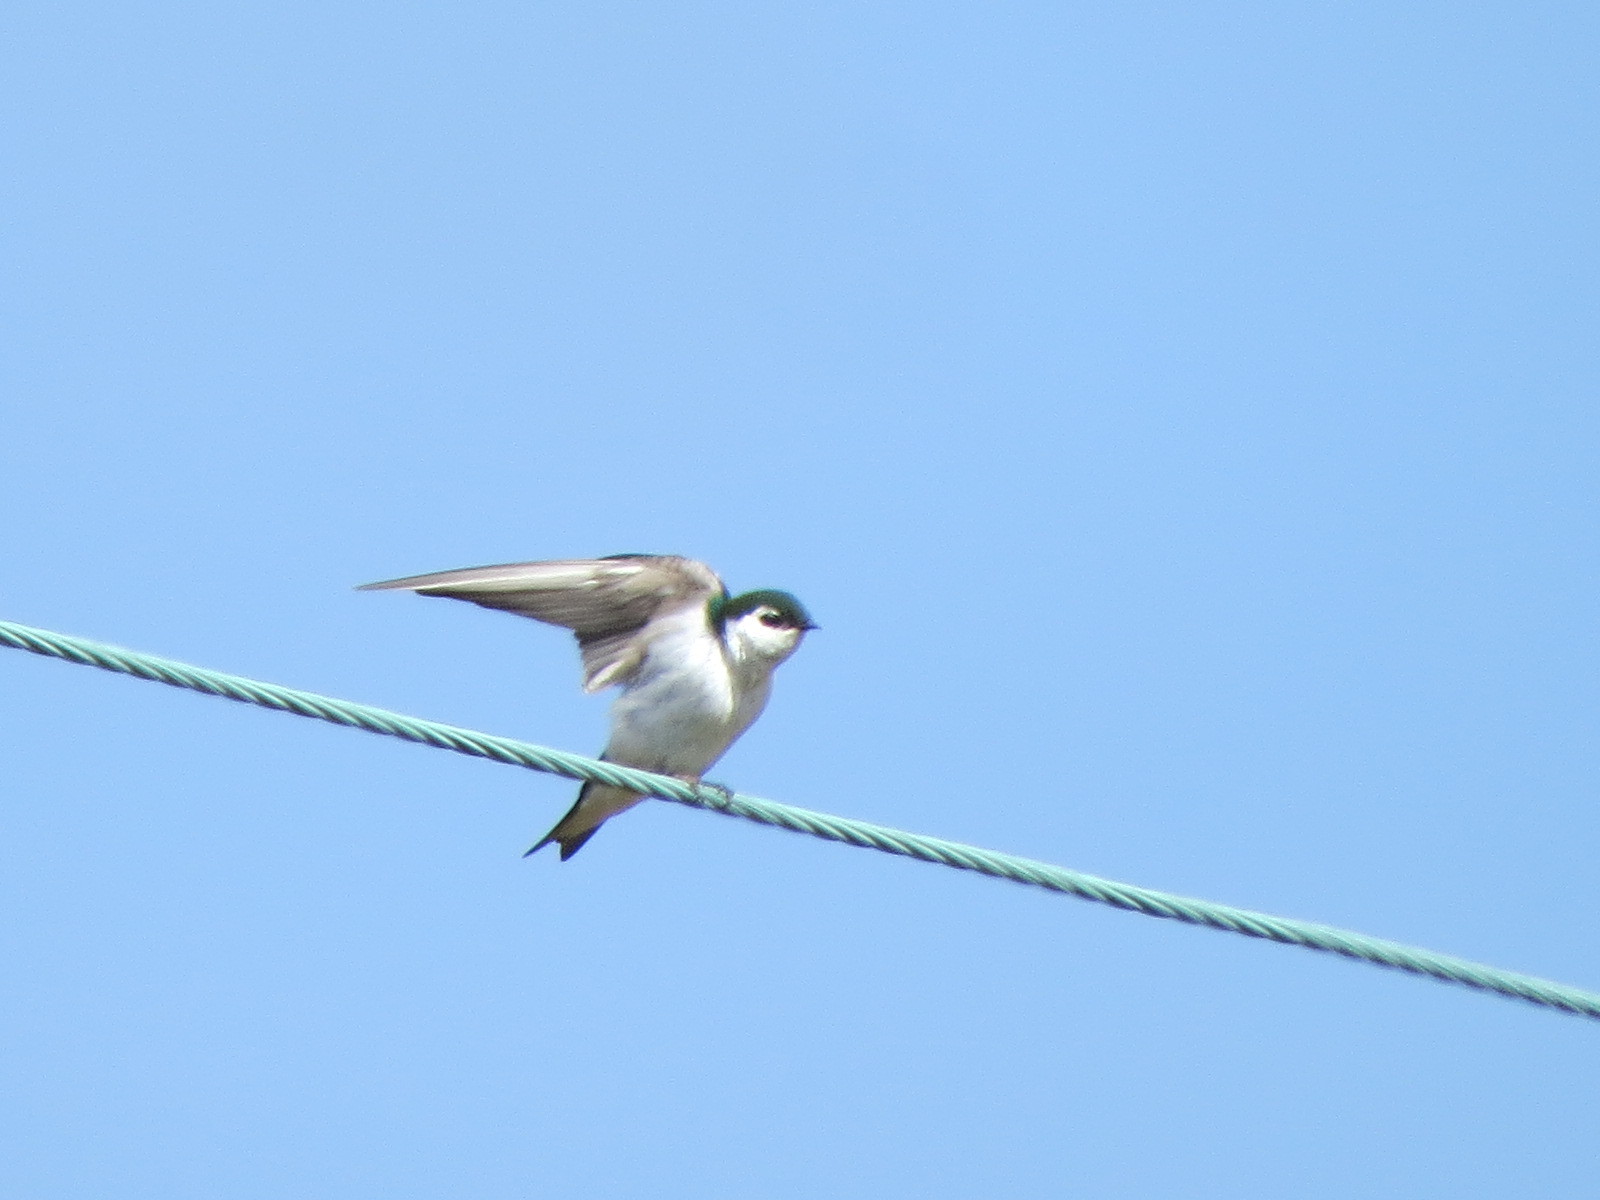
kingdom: Animalia
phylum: Chordata
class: Aves
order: Passeriformes
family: Hirundinidae
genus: Tachycineta
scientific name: Tachycineta thalassina
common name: Violet-green swallow
